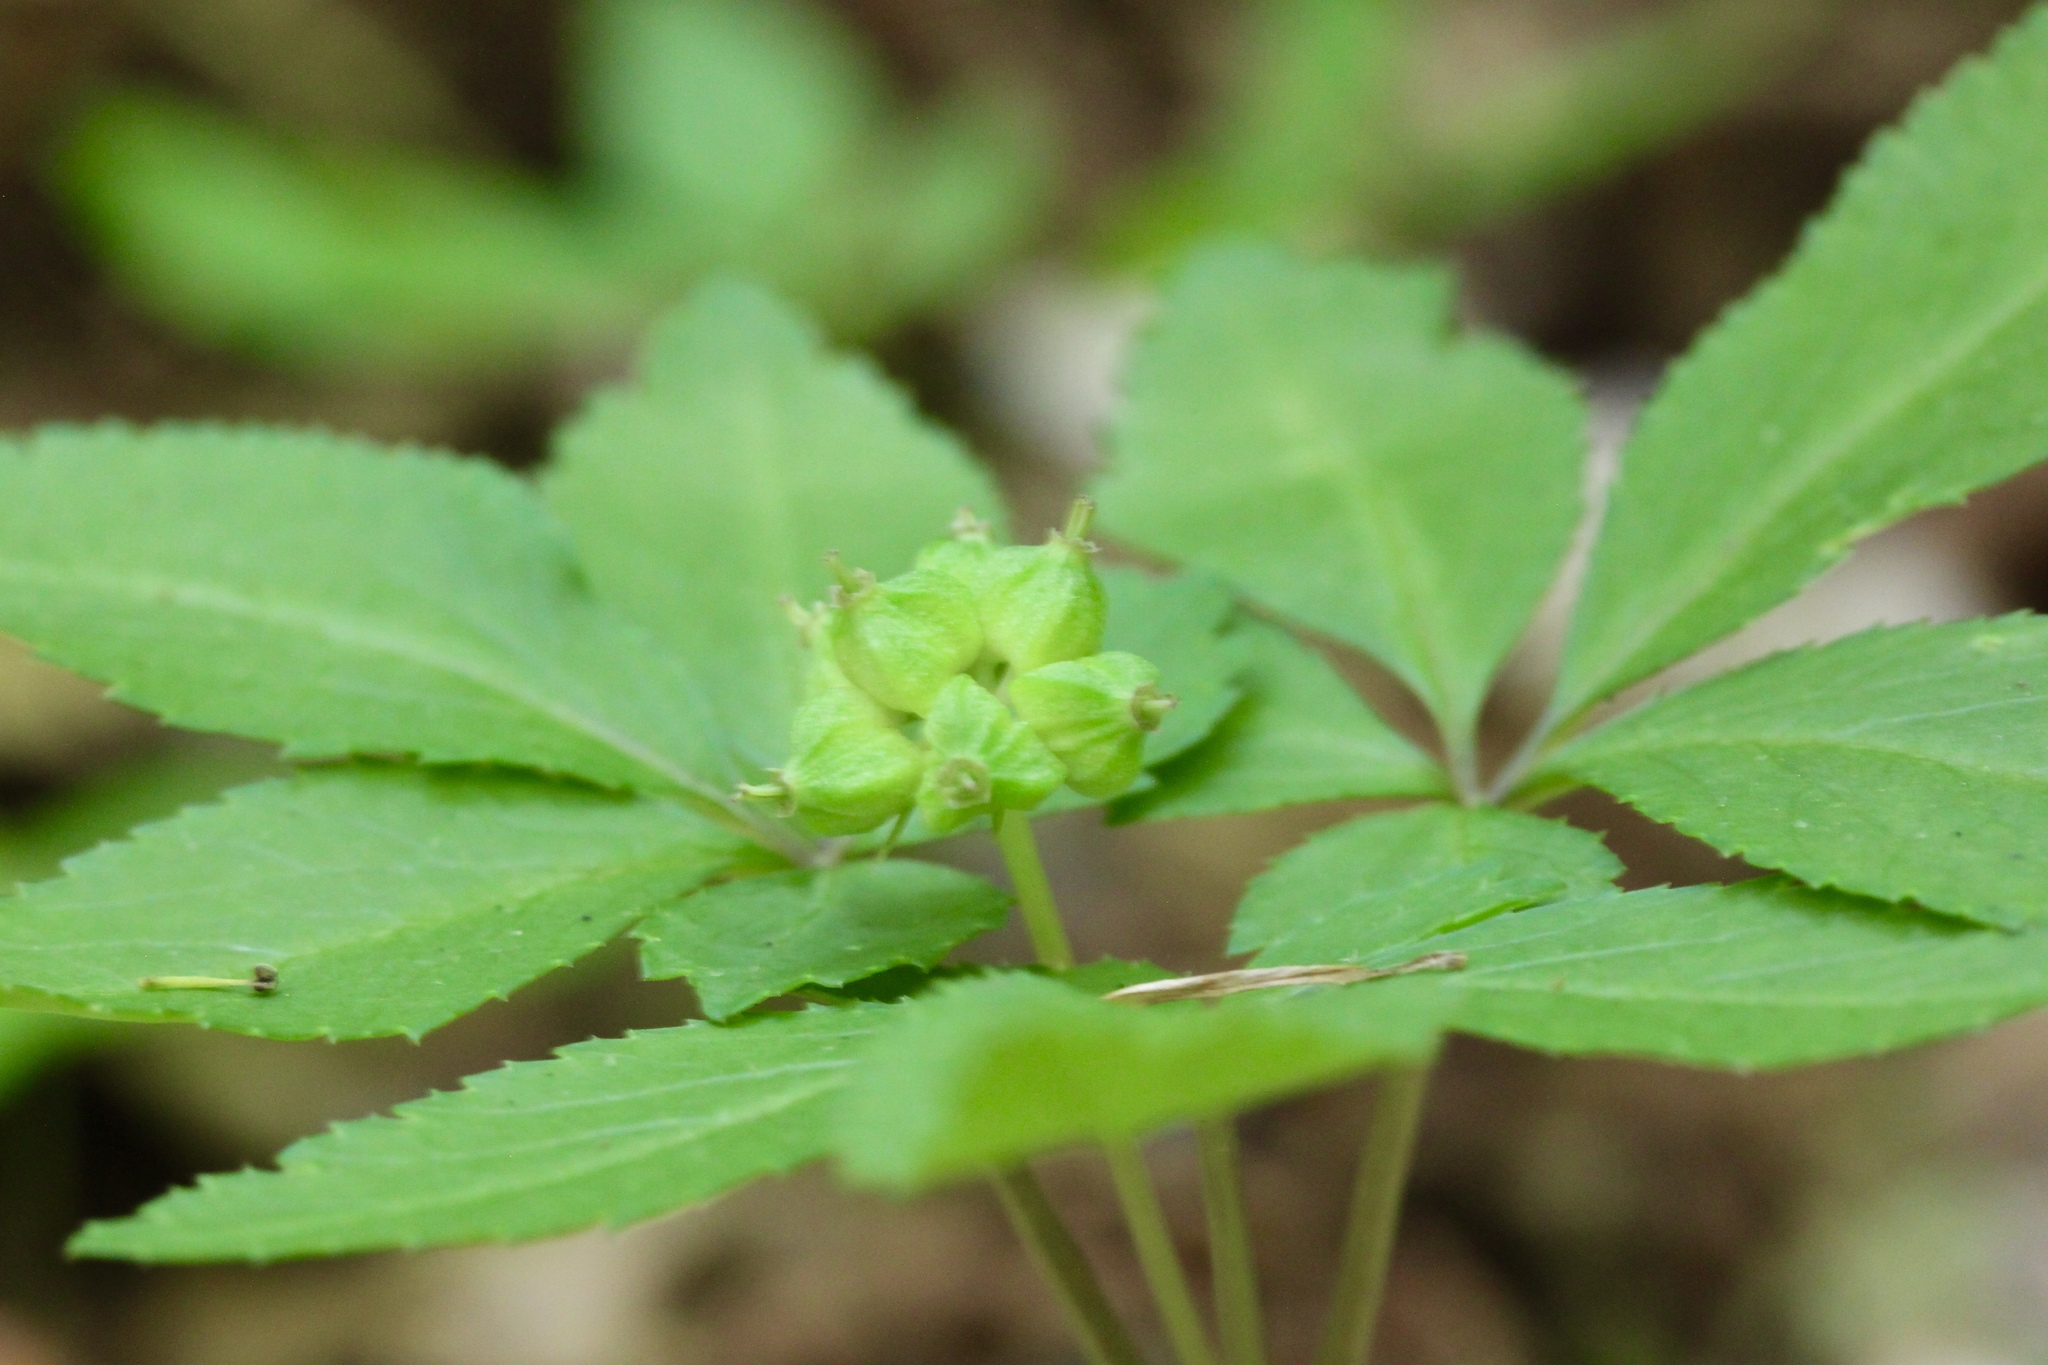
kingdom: Plantae
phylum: Tracheophyta
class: Magnoliopsida
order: Apiales
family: Araliaceae
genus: Panax
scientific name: Panax trifolius
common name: Dwarf ginseng
